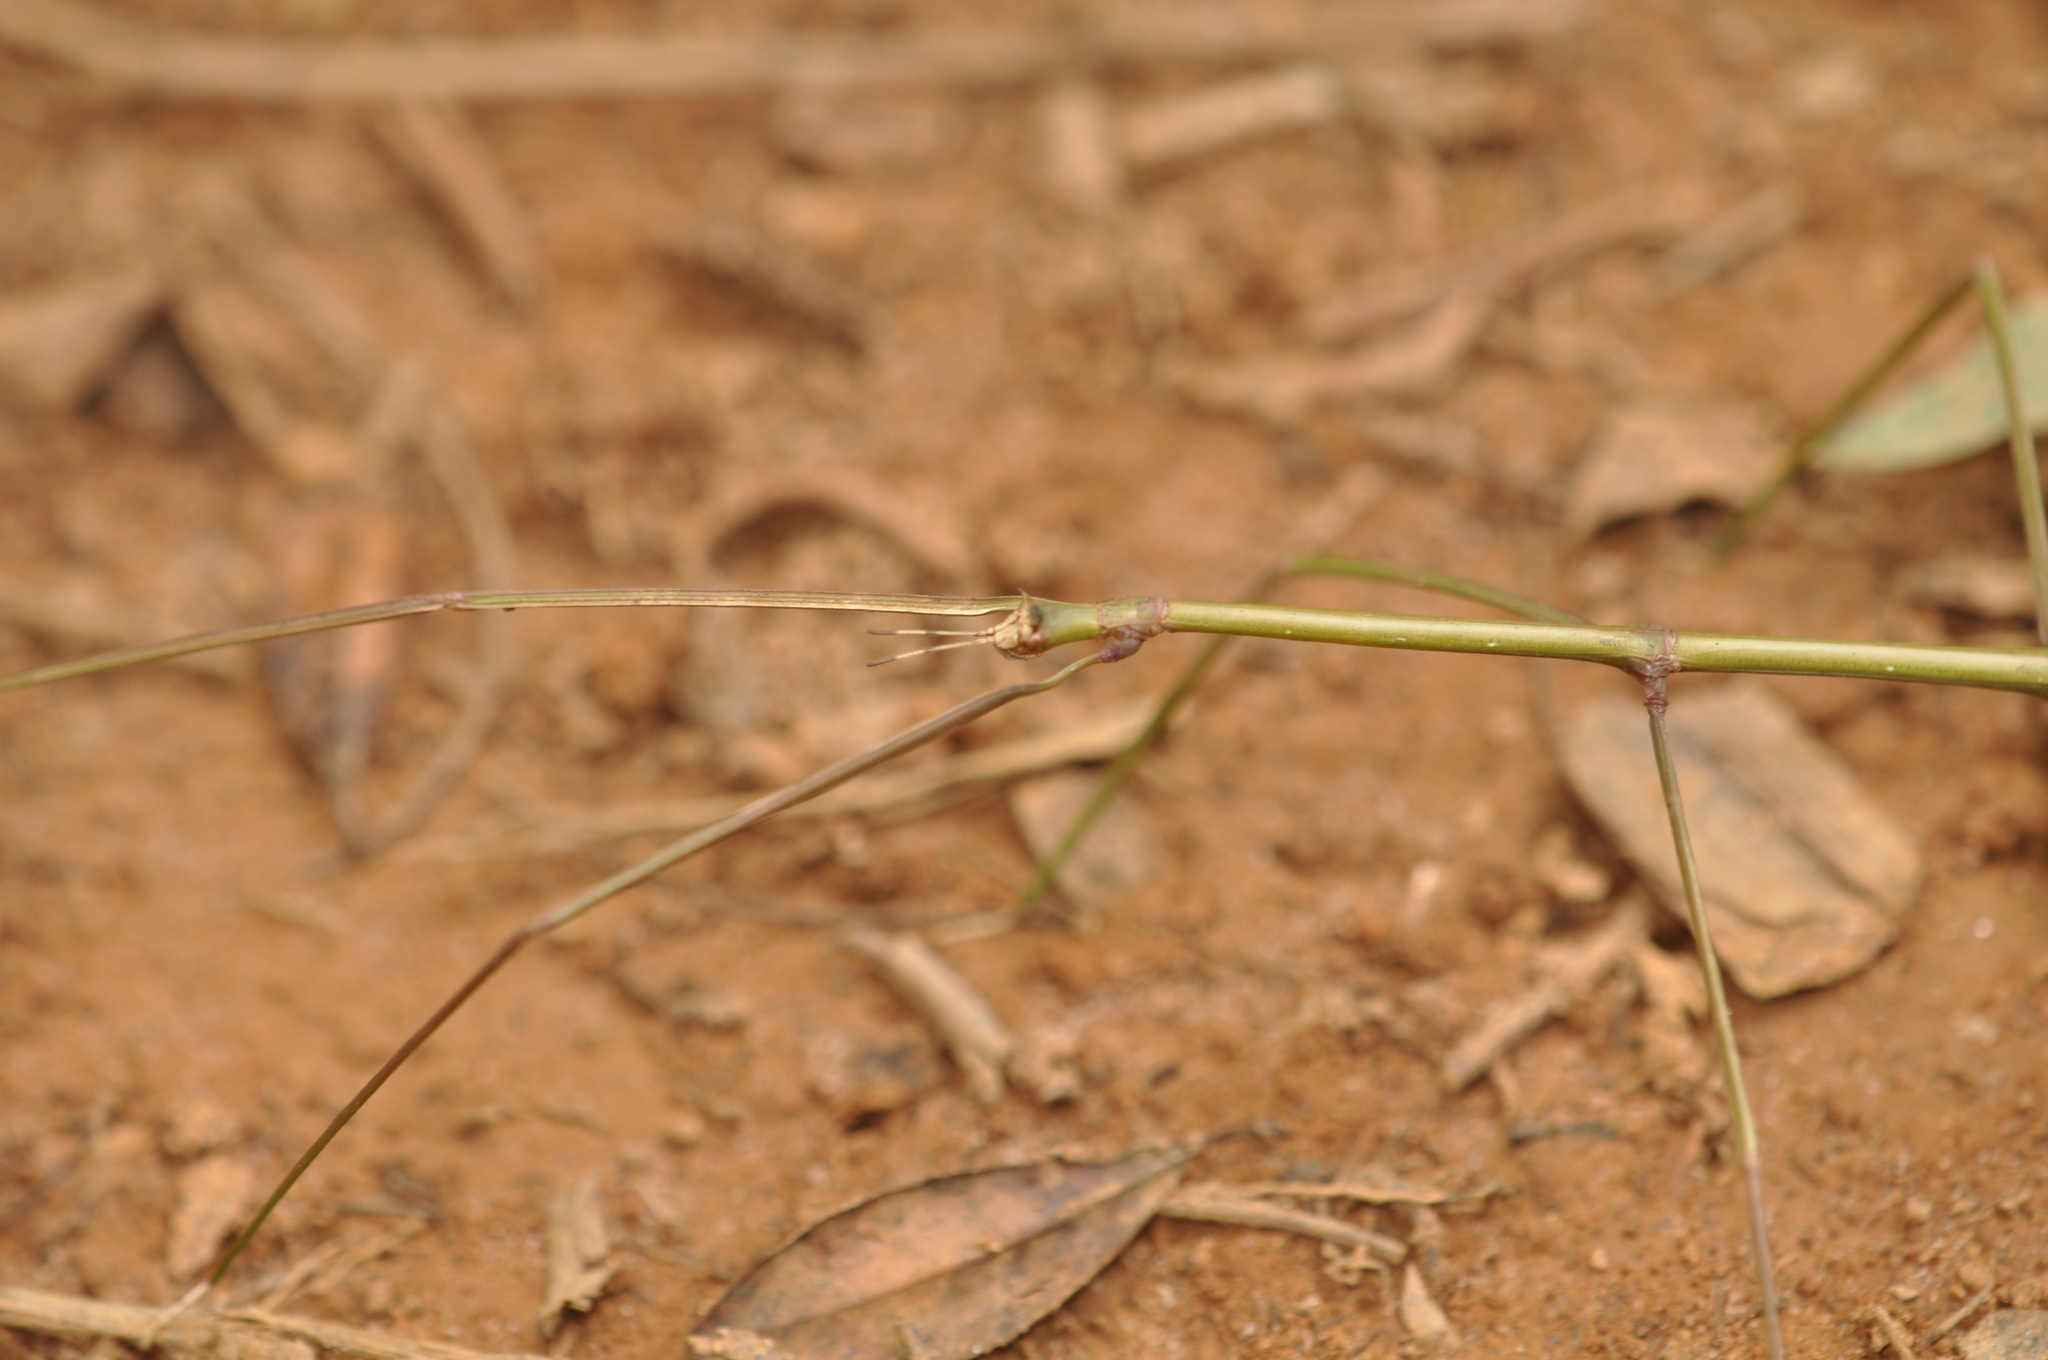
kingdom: Animalia
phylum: Arthropoda
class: Insecta
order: Phasmida
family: Phasmatidae
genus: Spathomorpha
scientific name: Spathomorpha adefa
